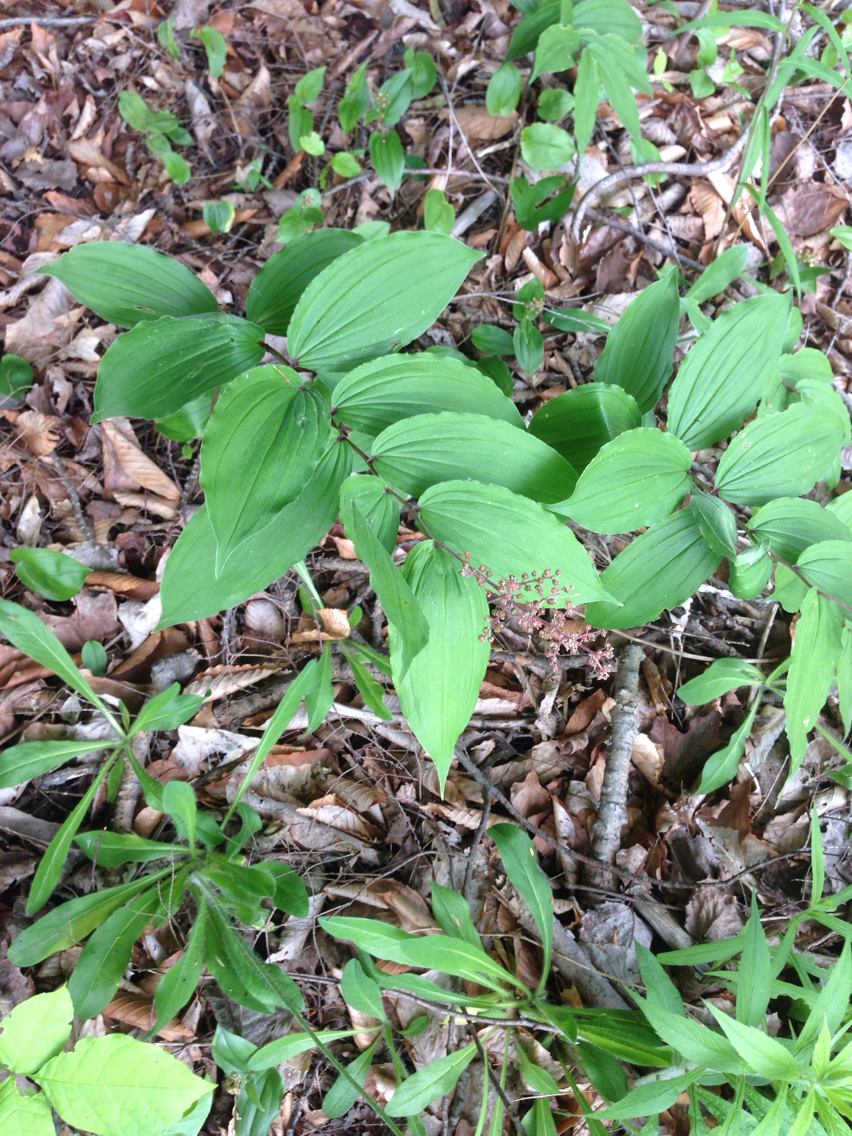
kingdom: Plantae
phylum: Tracheophyta
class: Liliopsida
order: Asparagales
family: Asparagaceae
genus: Maianthemum
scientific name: Maianthemum racemosum
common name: False spikenard
